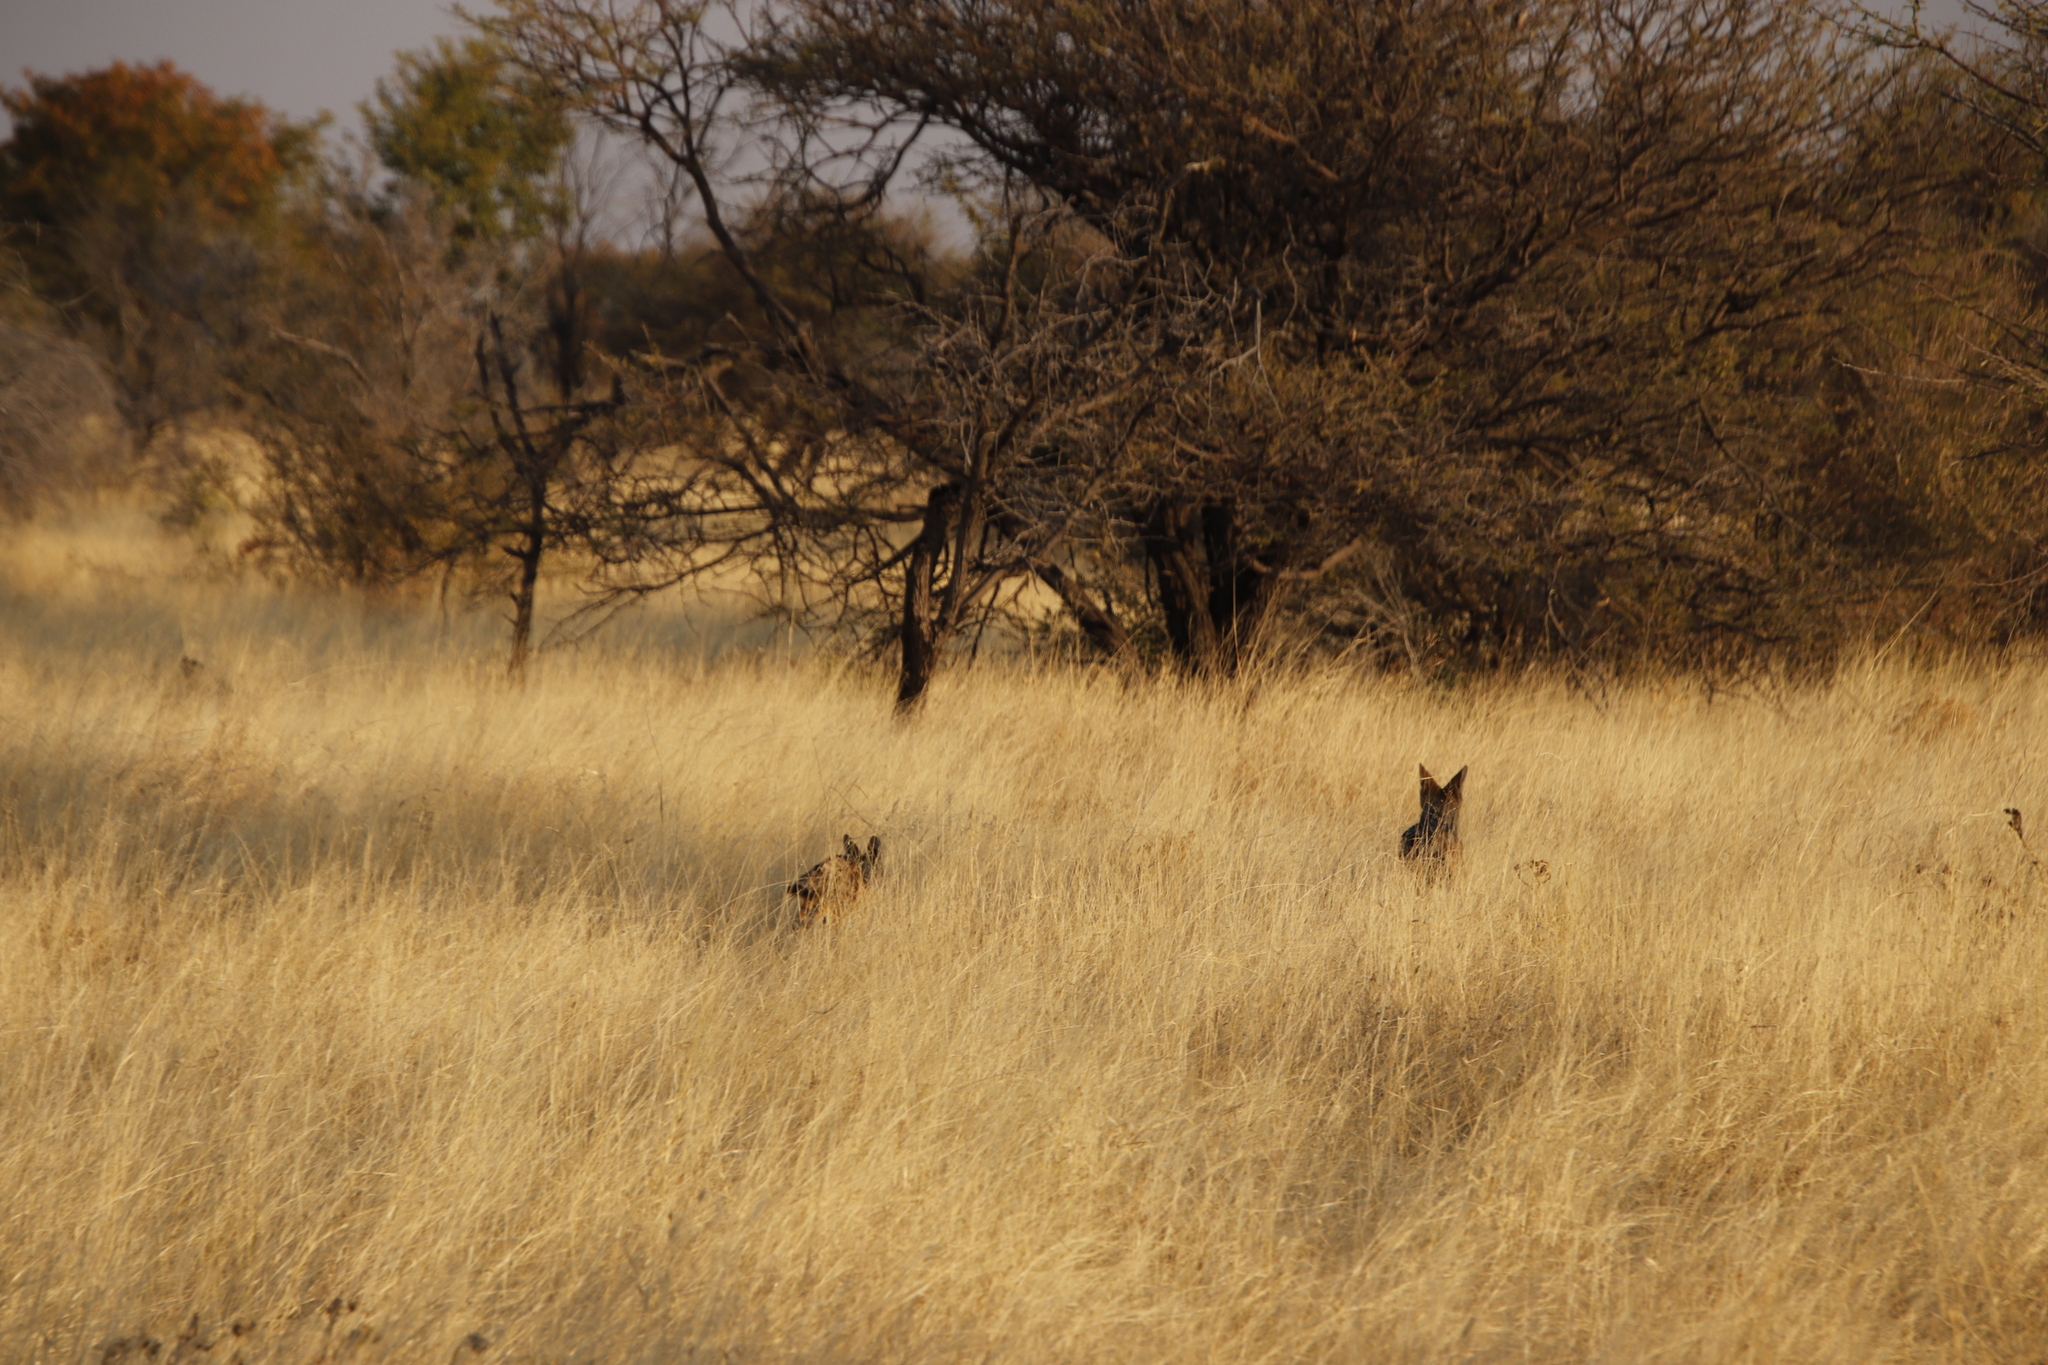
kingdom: Animalia
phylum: Chordata
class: Mammalia
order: Carnivora
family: Canidae
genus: Lupulella
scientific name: Lupulella
